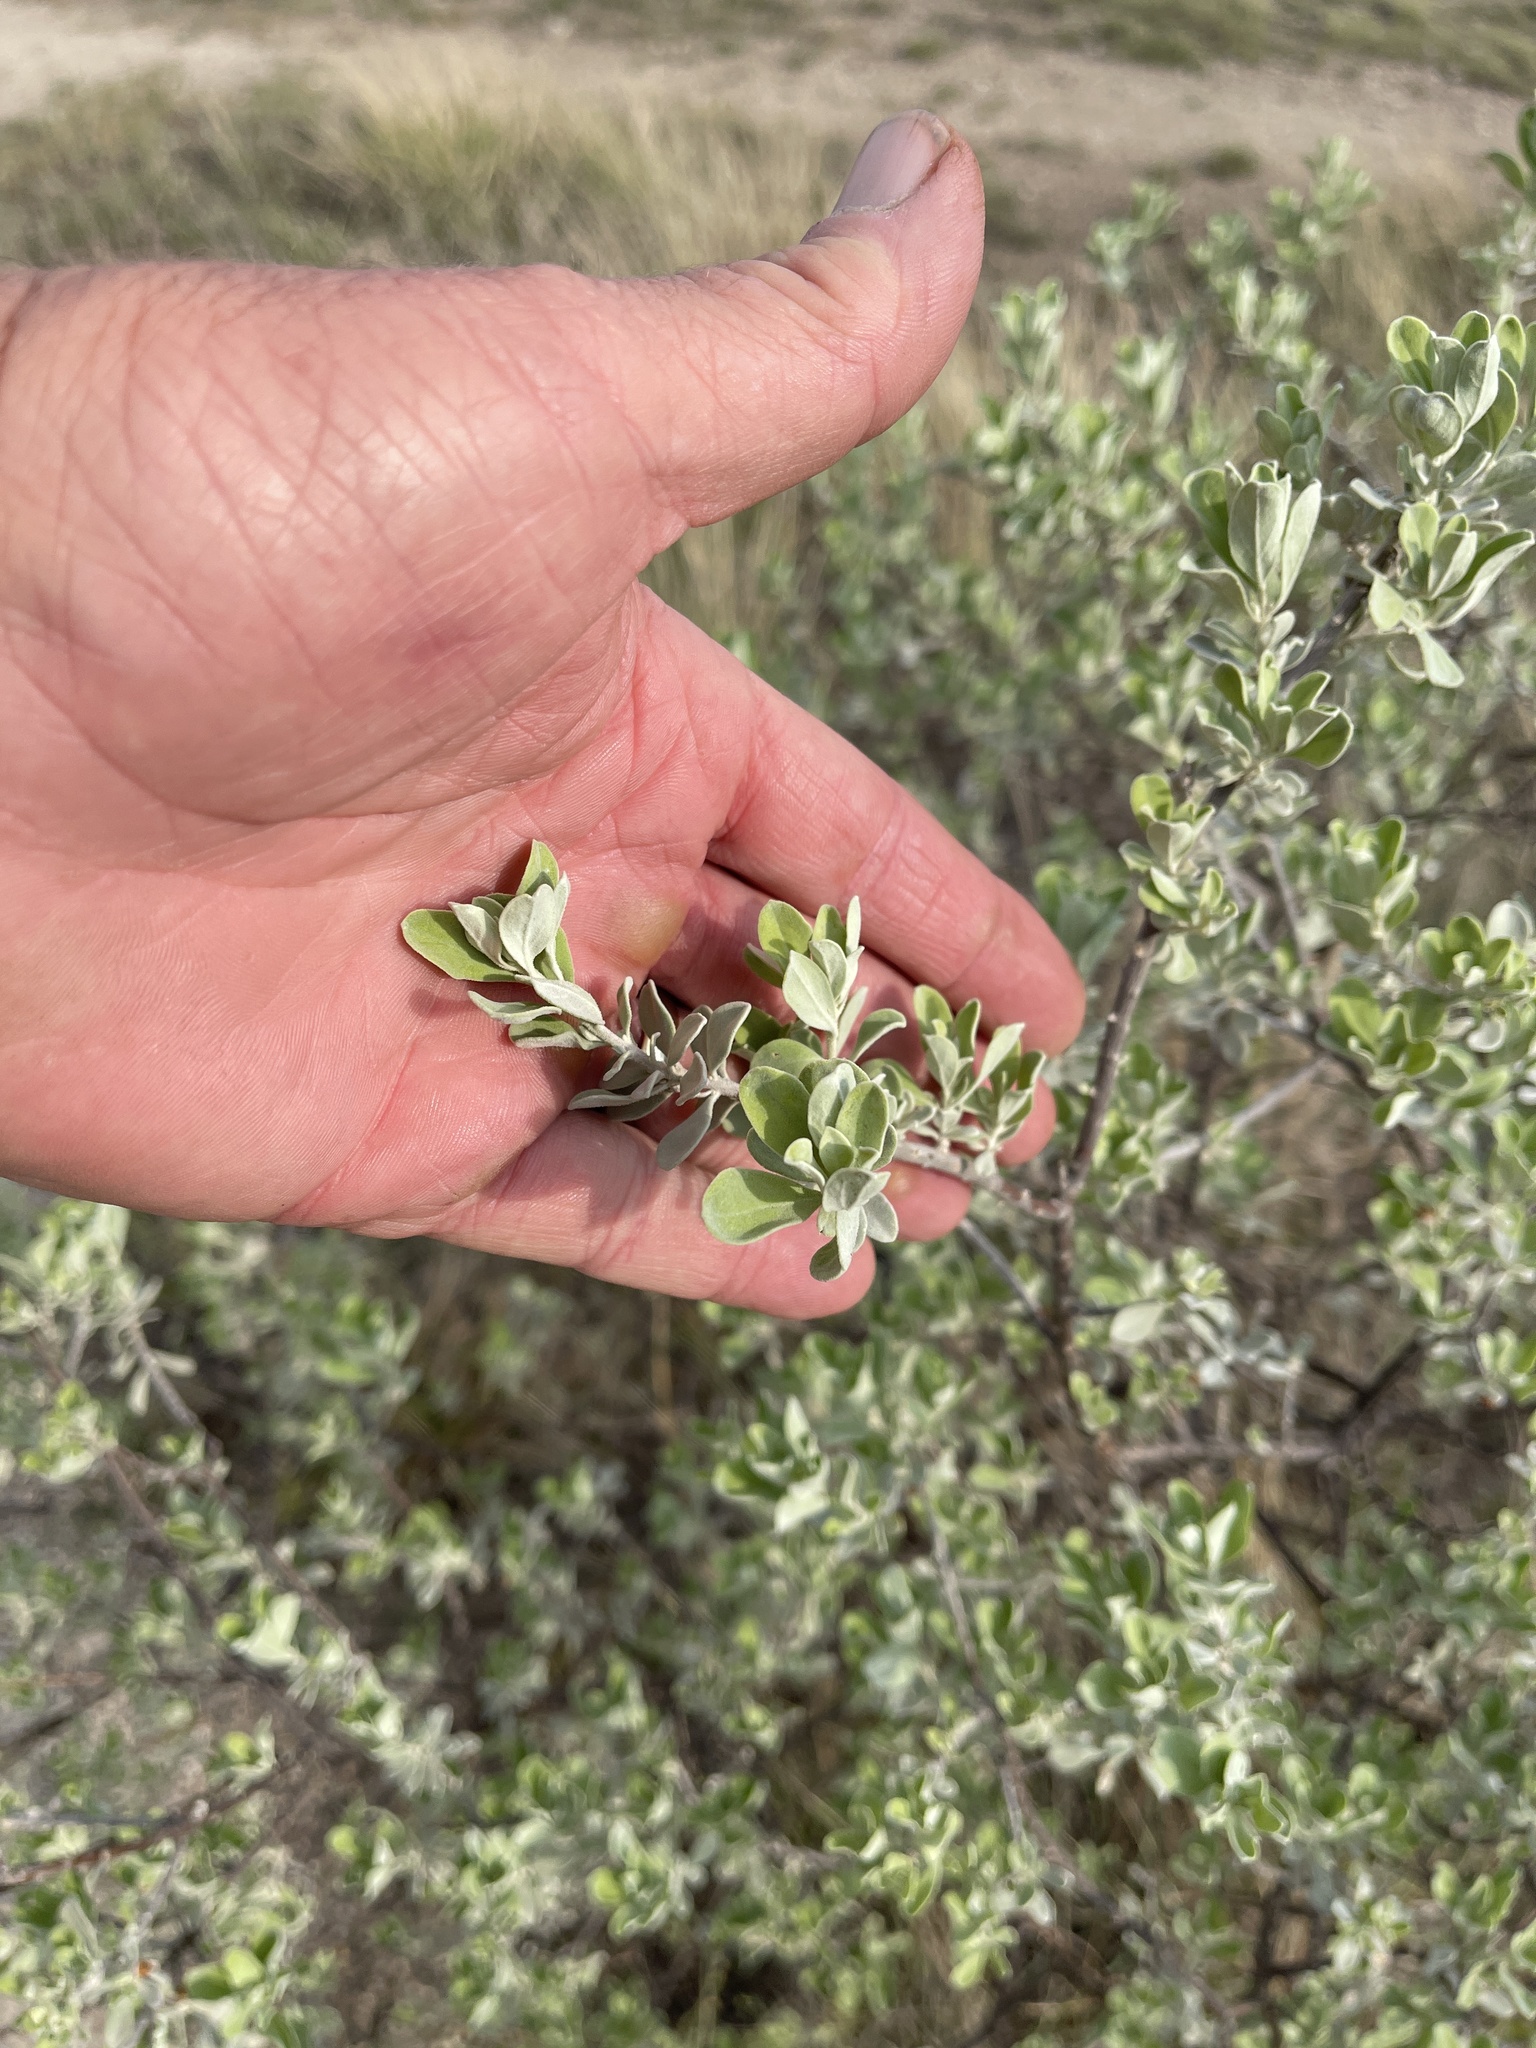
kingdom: Plantae
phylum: Tracheophyta
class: Magnoliopsida
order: Lamiales
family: Scrophulariaceae
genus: Leucophyllum
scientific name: Leucophyllum frutescens
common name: Texas silverleaf
